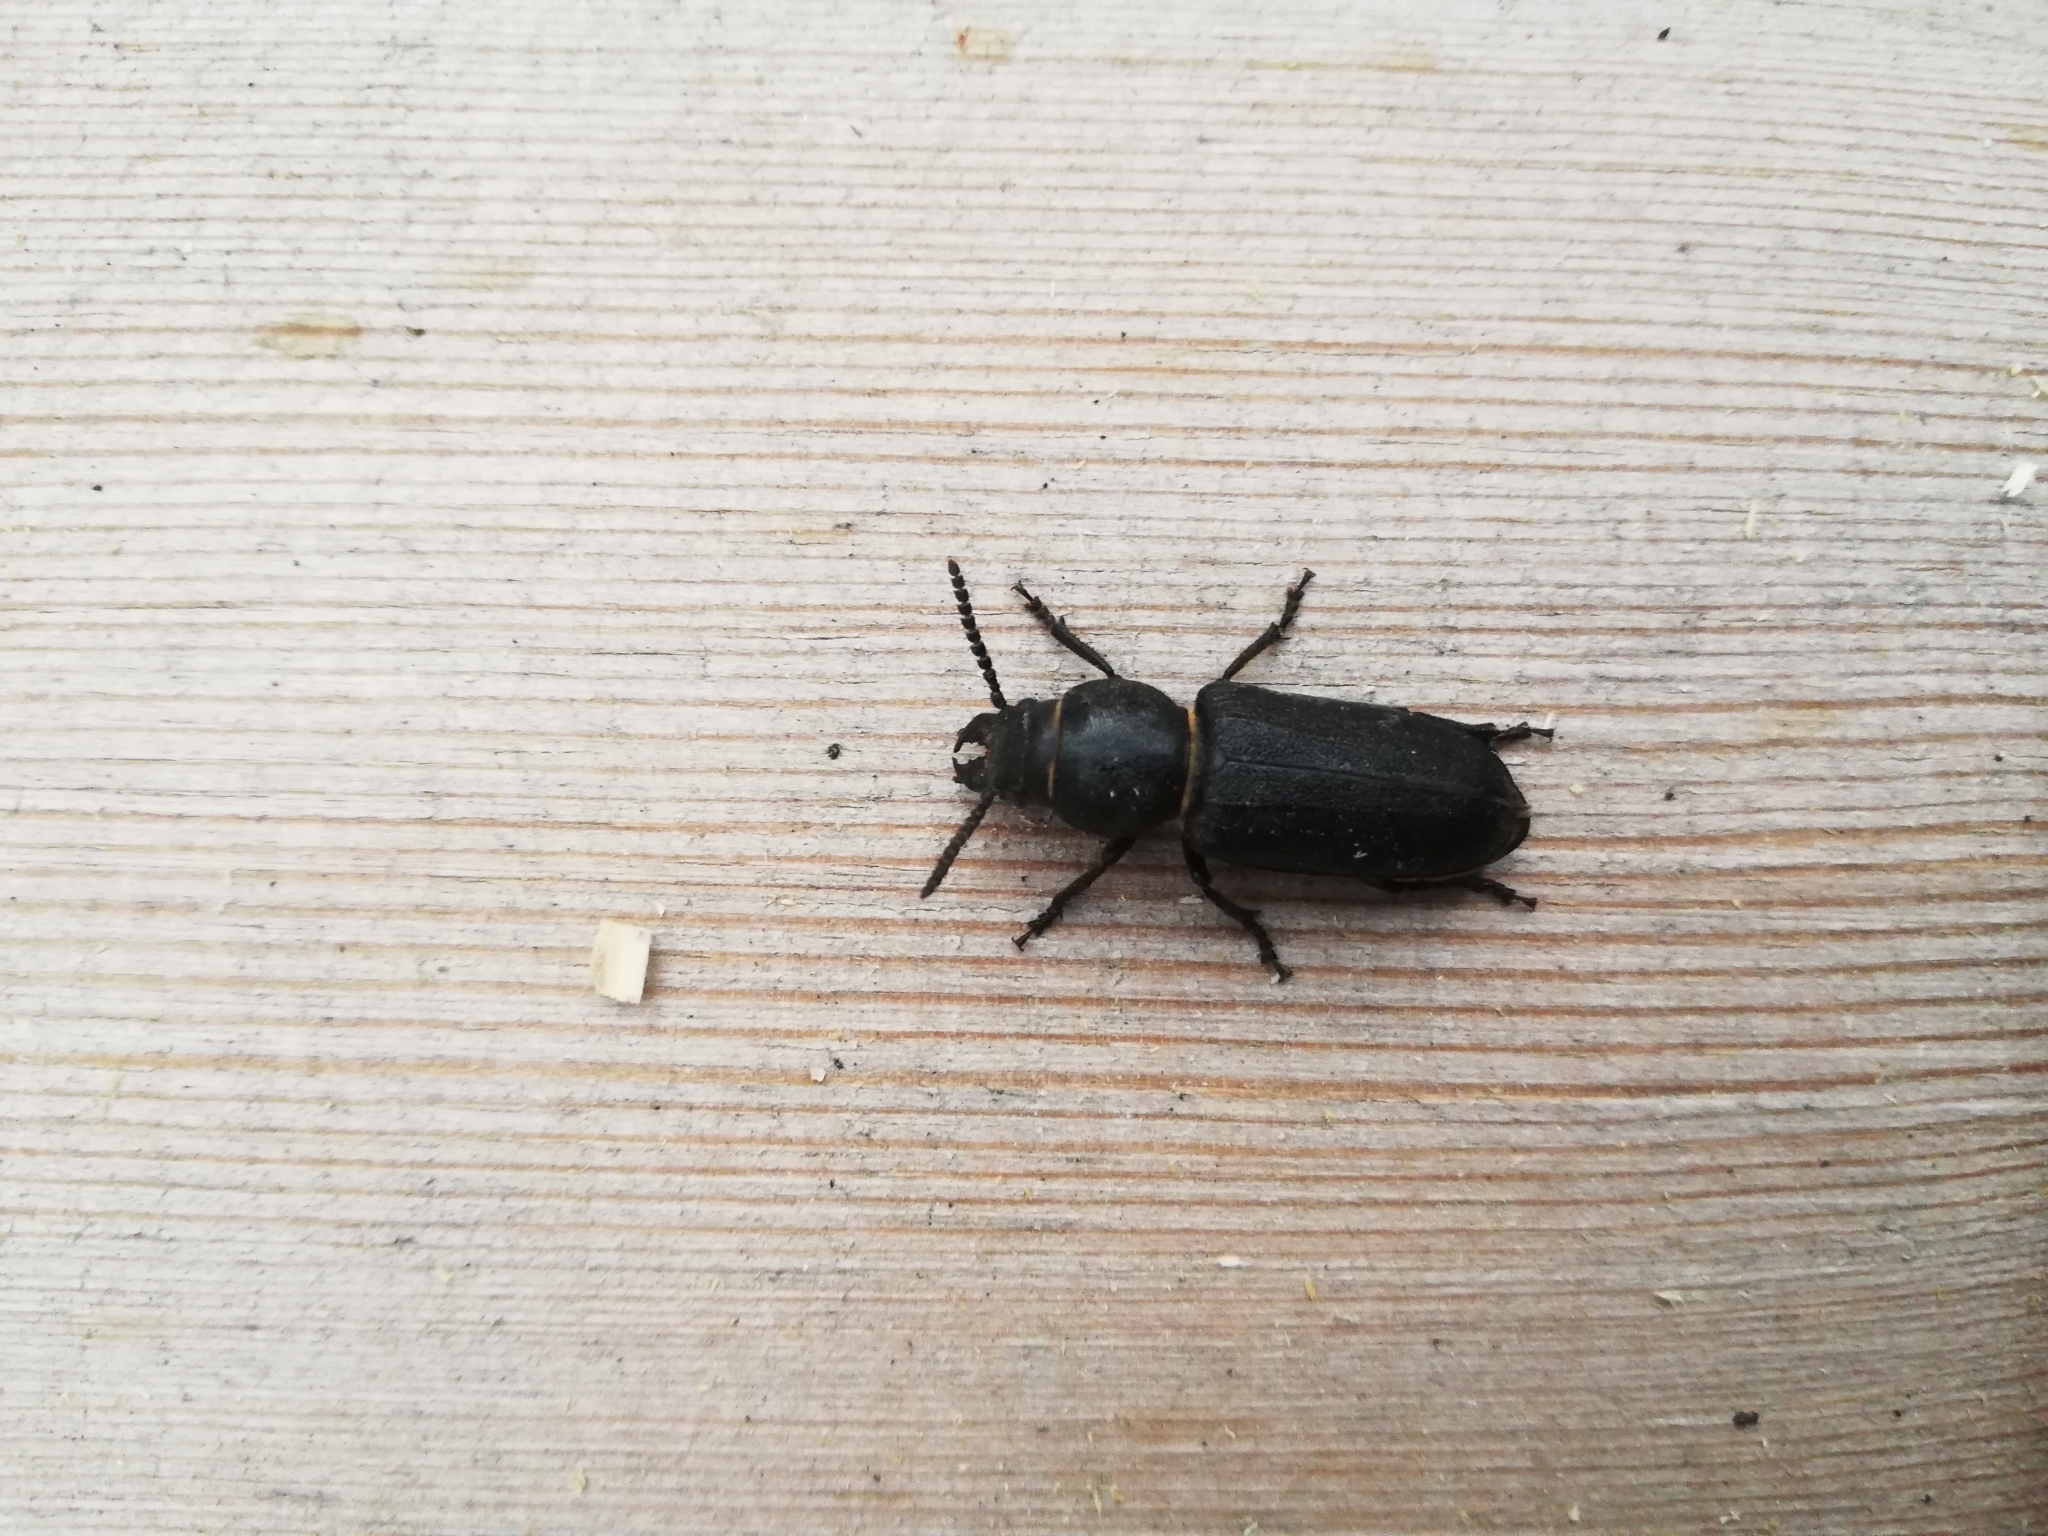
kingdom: Animalia
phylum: Arthropoda
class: Insecta
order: Coleoptera
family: Cerambycidae
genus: Spondylis
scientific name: Spondylis buprestoides
